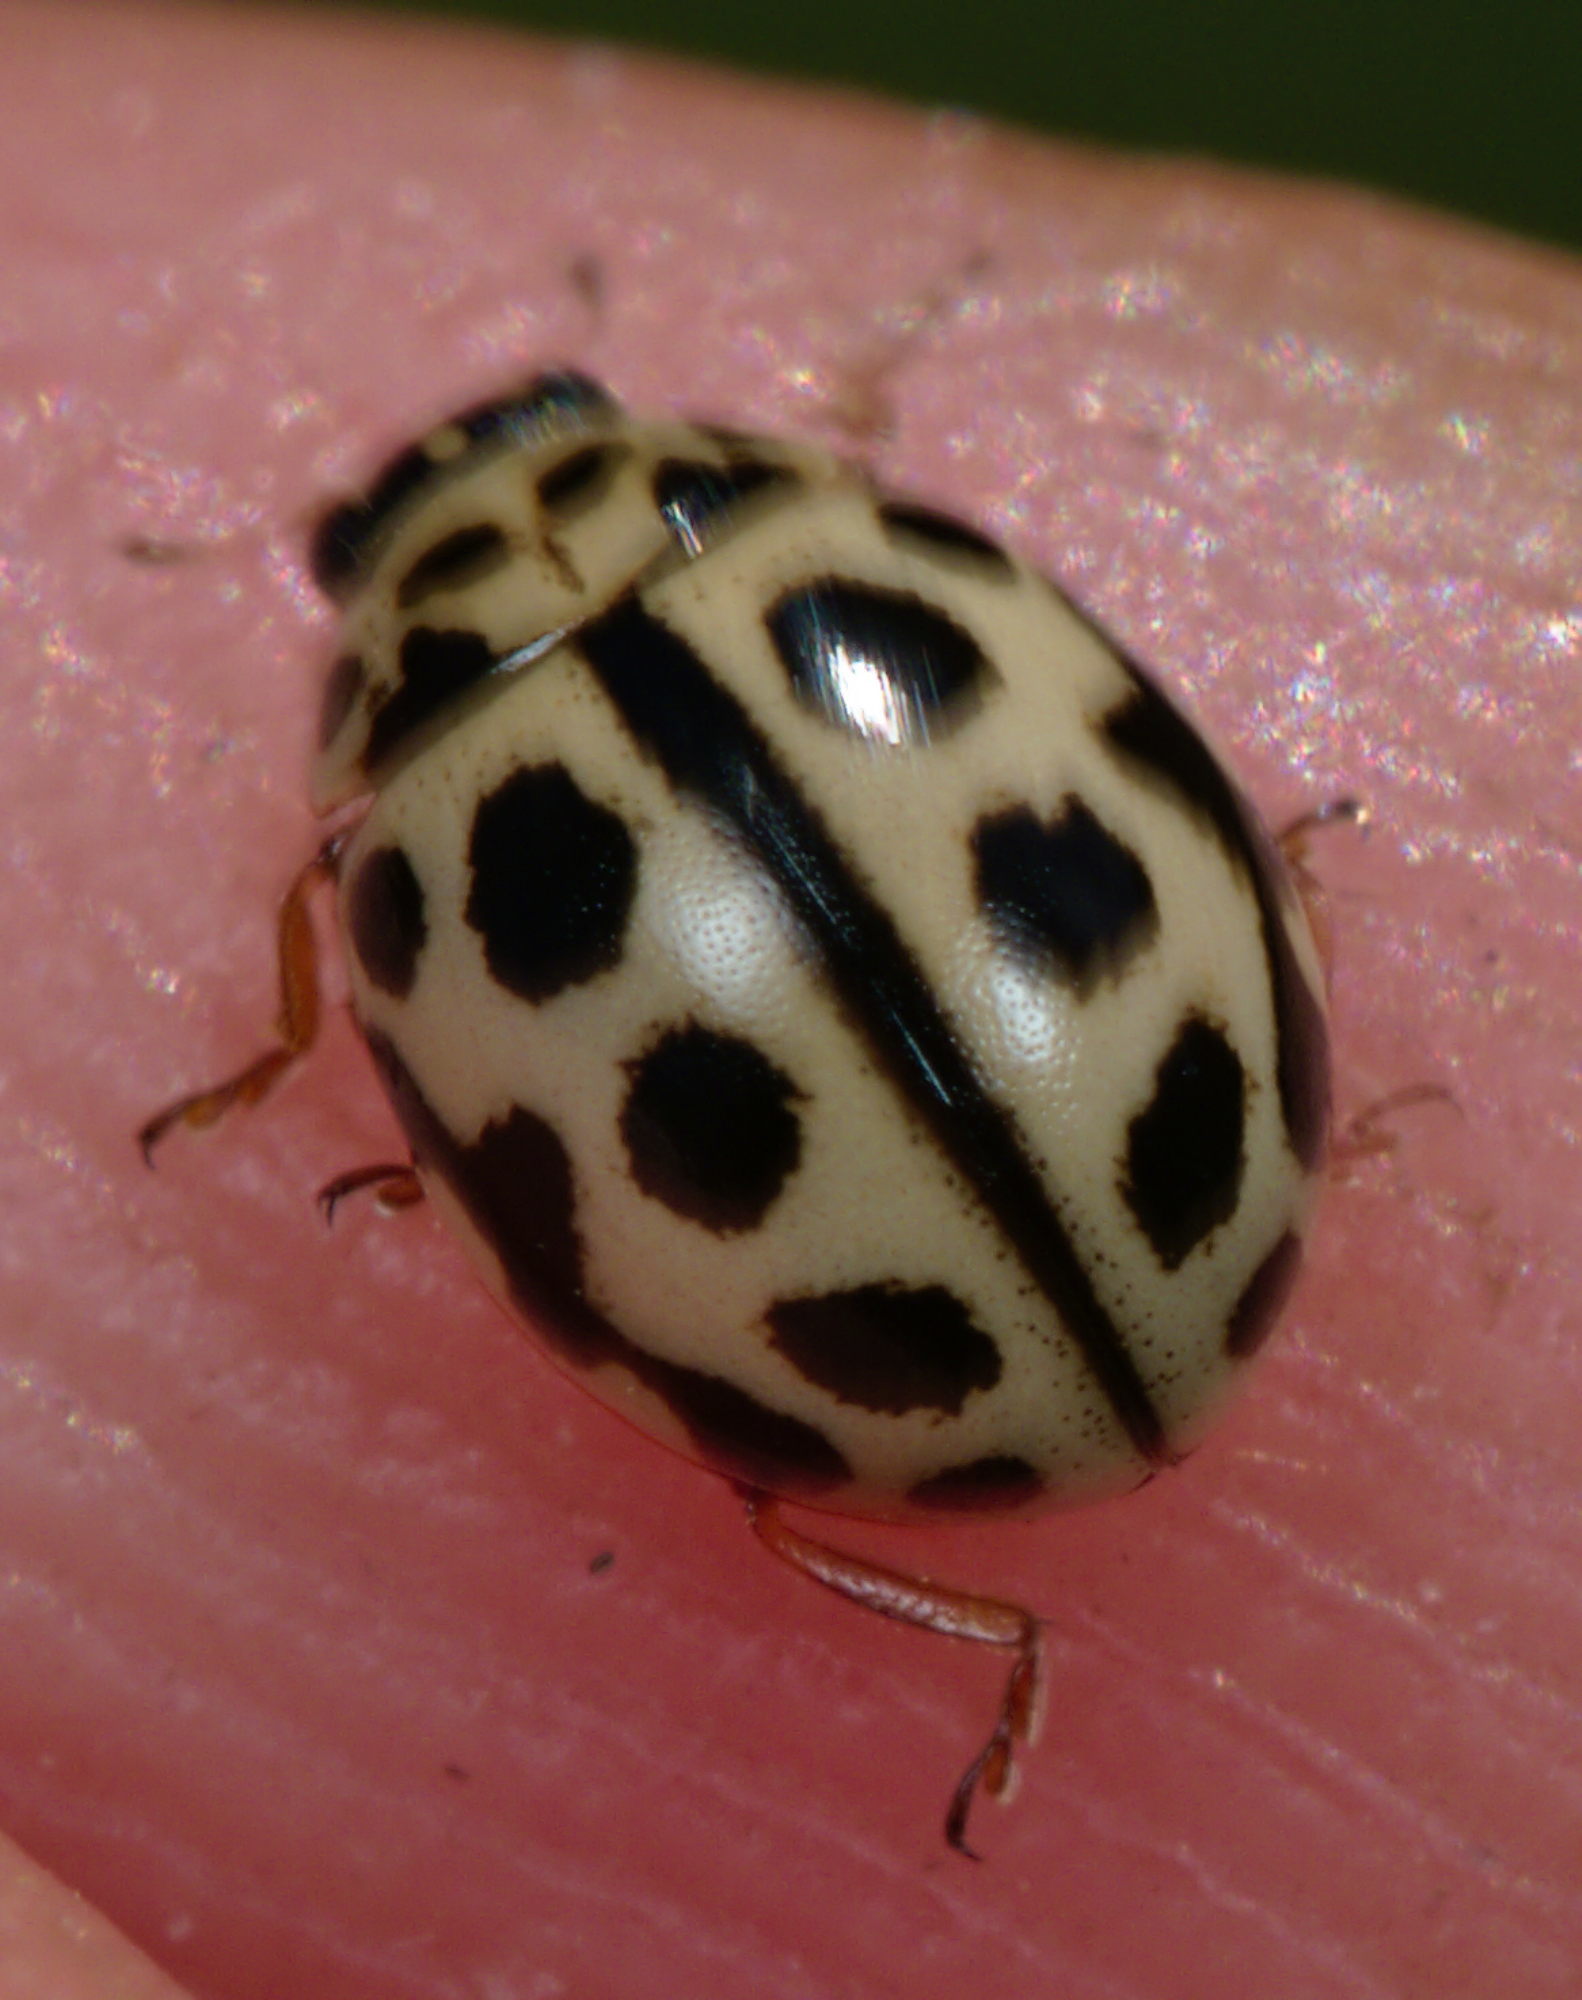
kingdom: Animalia
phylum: Arthropoda
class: Insecta
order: Coleoptera
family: Coccinellidae
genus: Tytthaspis
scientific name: Tytthaspis sedecimpunctata
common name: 16-spot ladybird
